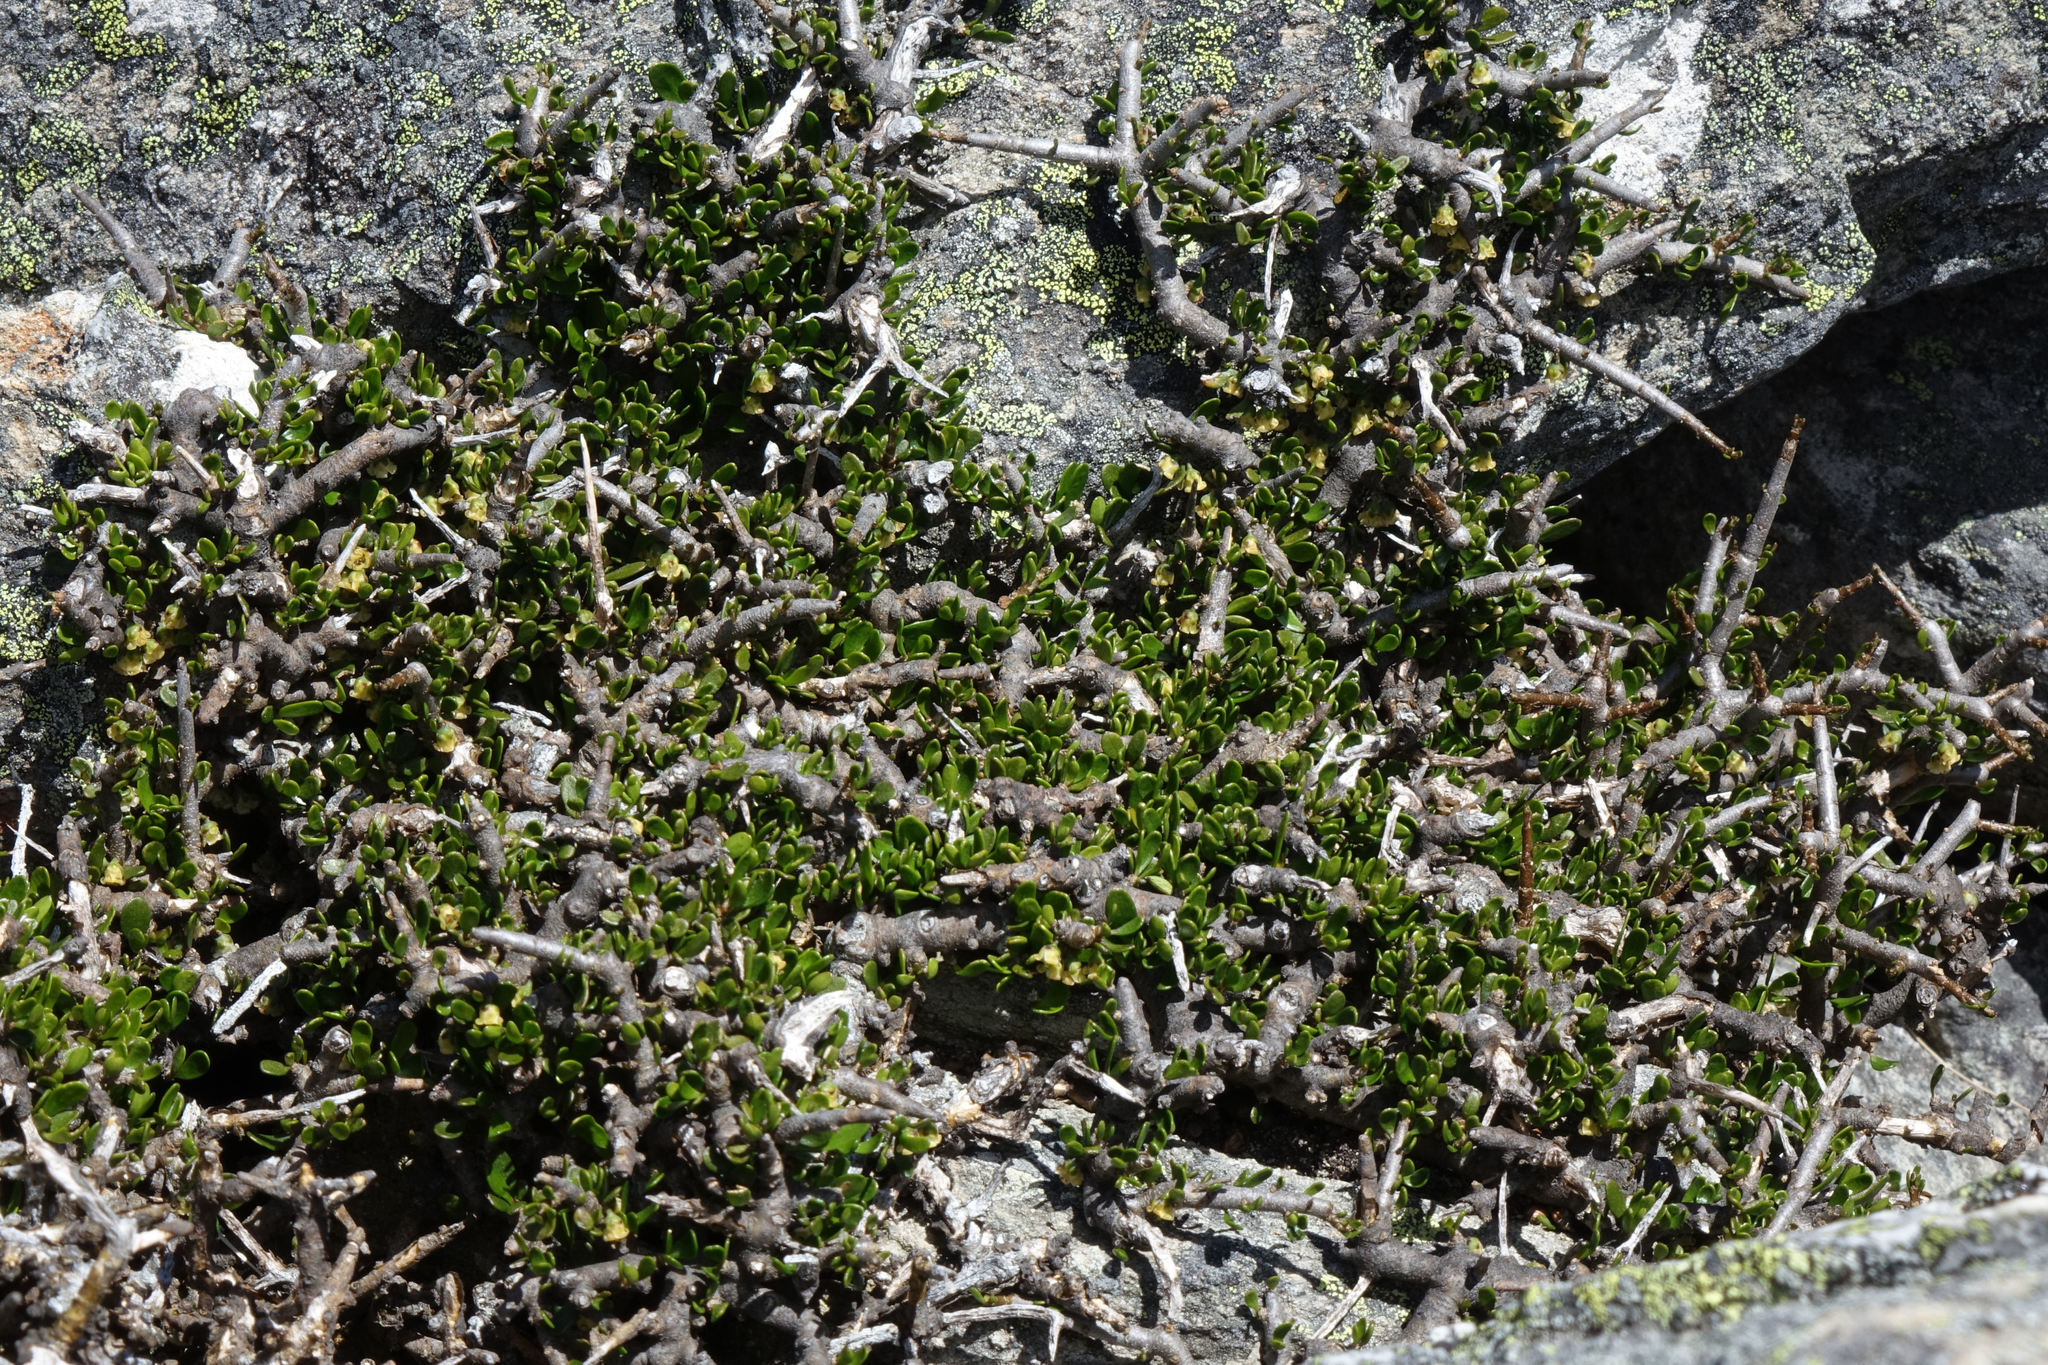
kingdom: Plantae
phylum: Tracheophyta
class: Magnoliopsida
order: Malpighiales
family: Violaceae
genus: Melicytus
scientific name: Melicytus alpinus
